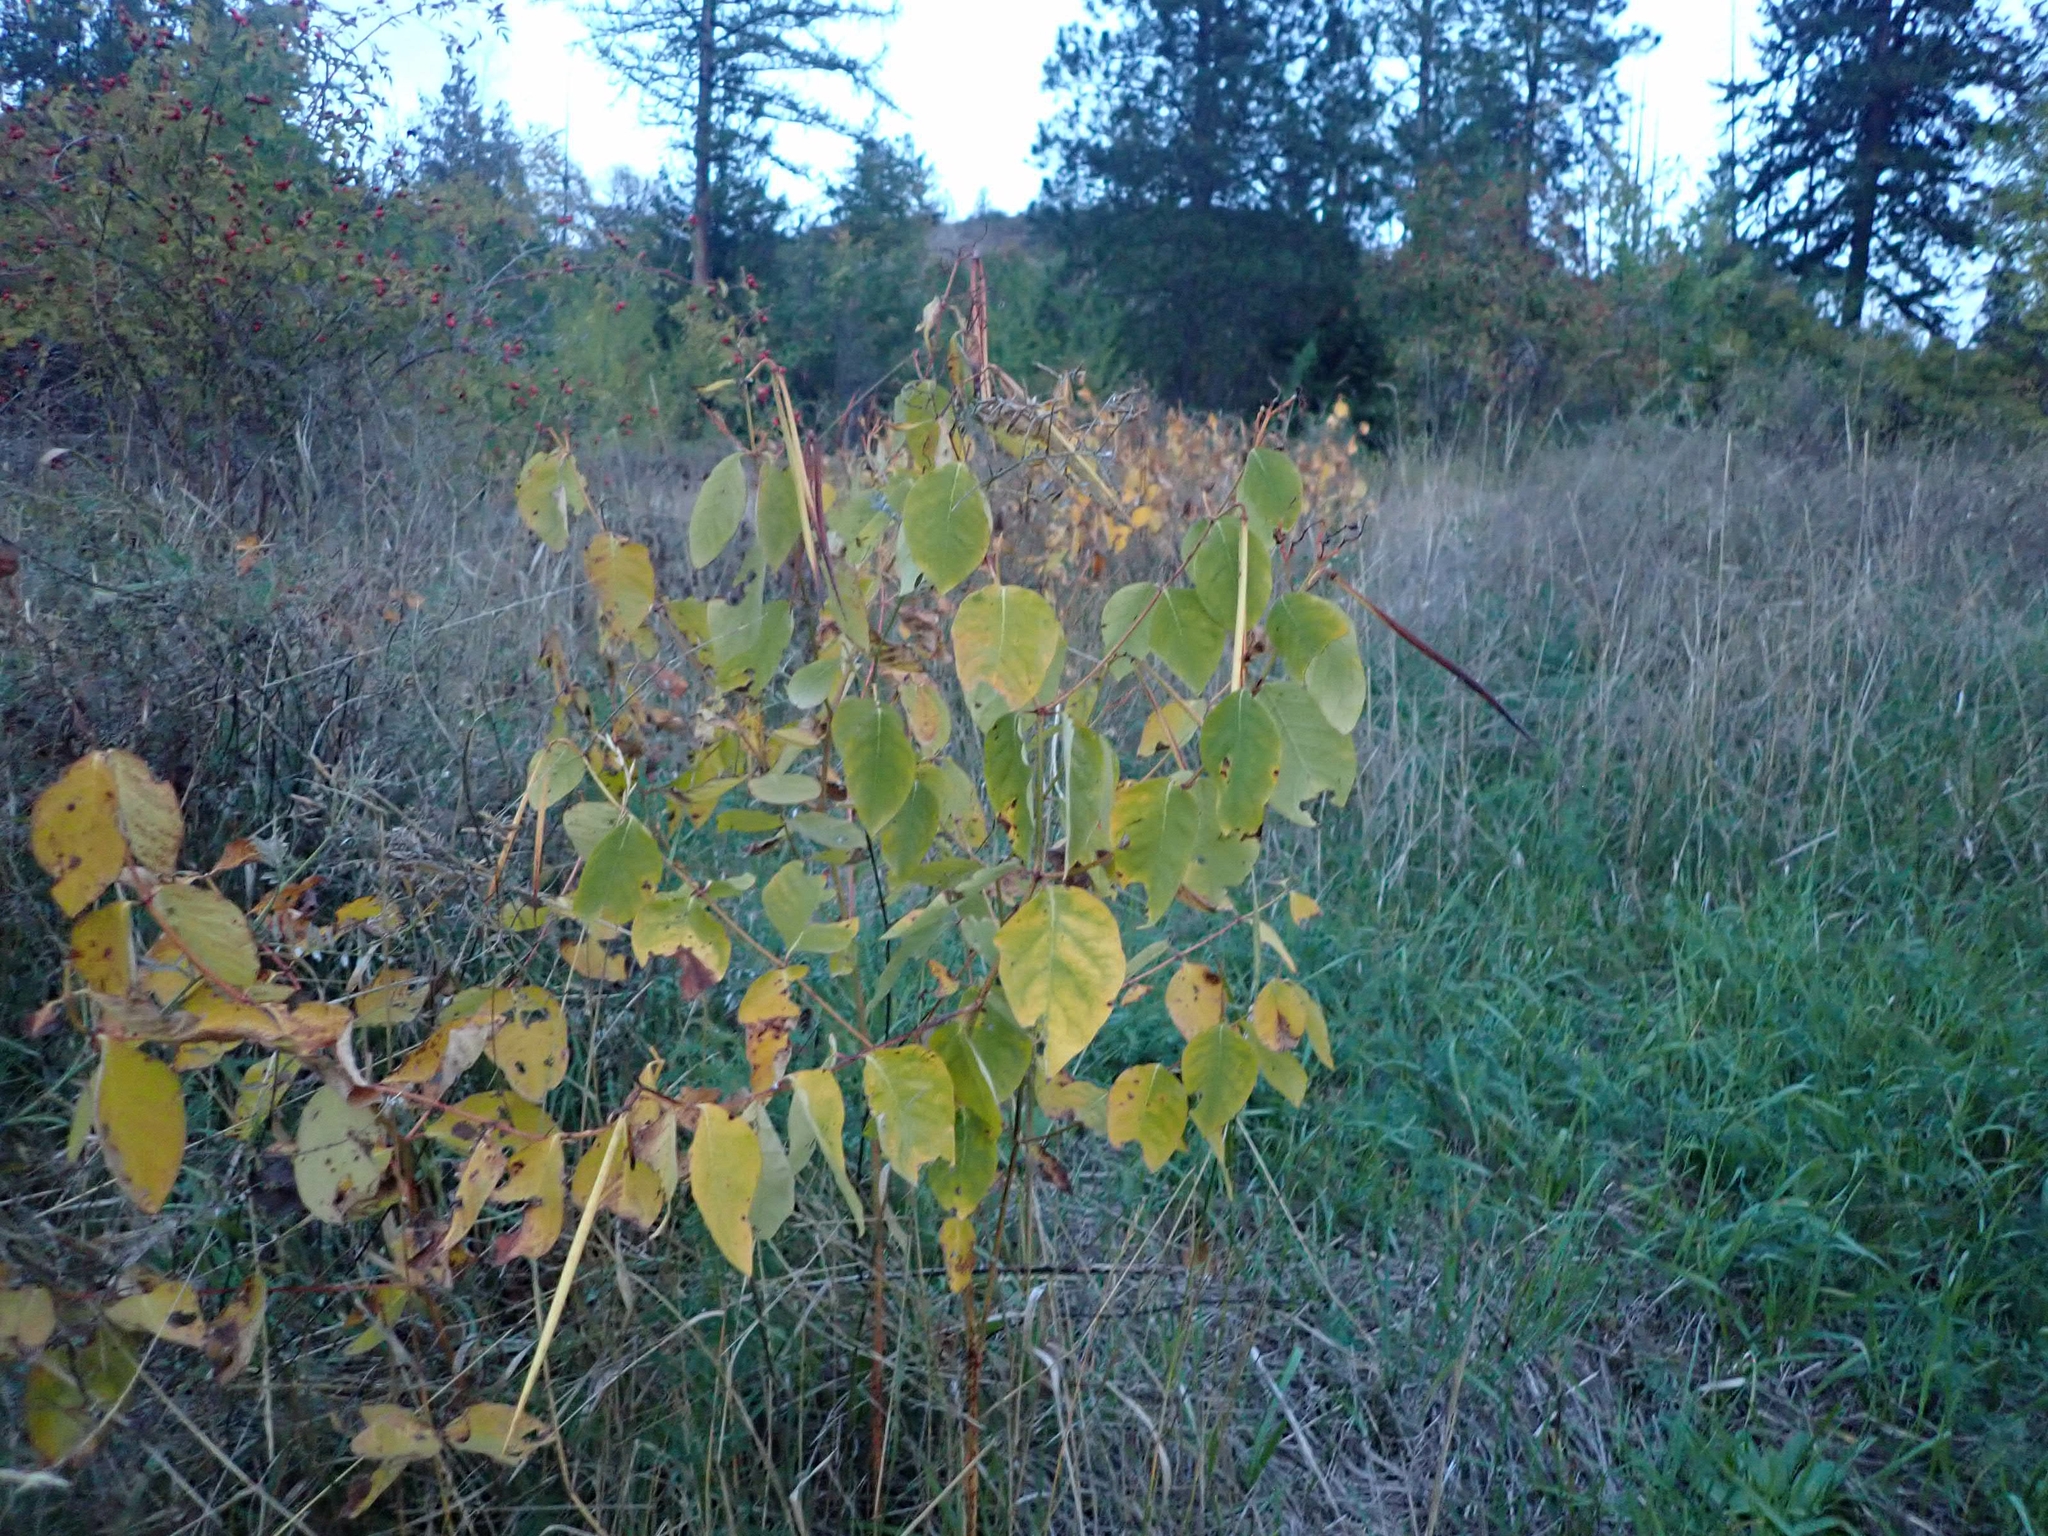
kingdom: Plantae
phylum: Tracheophyta
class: Magnoliopsida
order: Gentianales
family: Apocynaceae
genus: Apocynum
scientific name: Apocynum androsaemifolium
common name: Spreading dogbane
